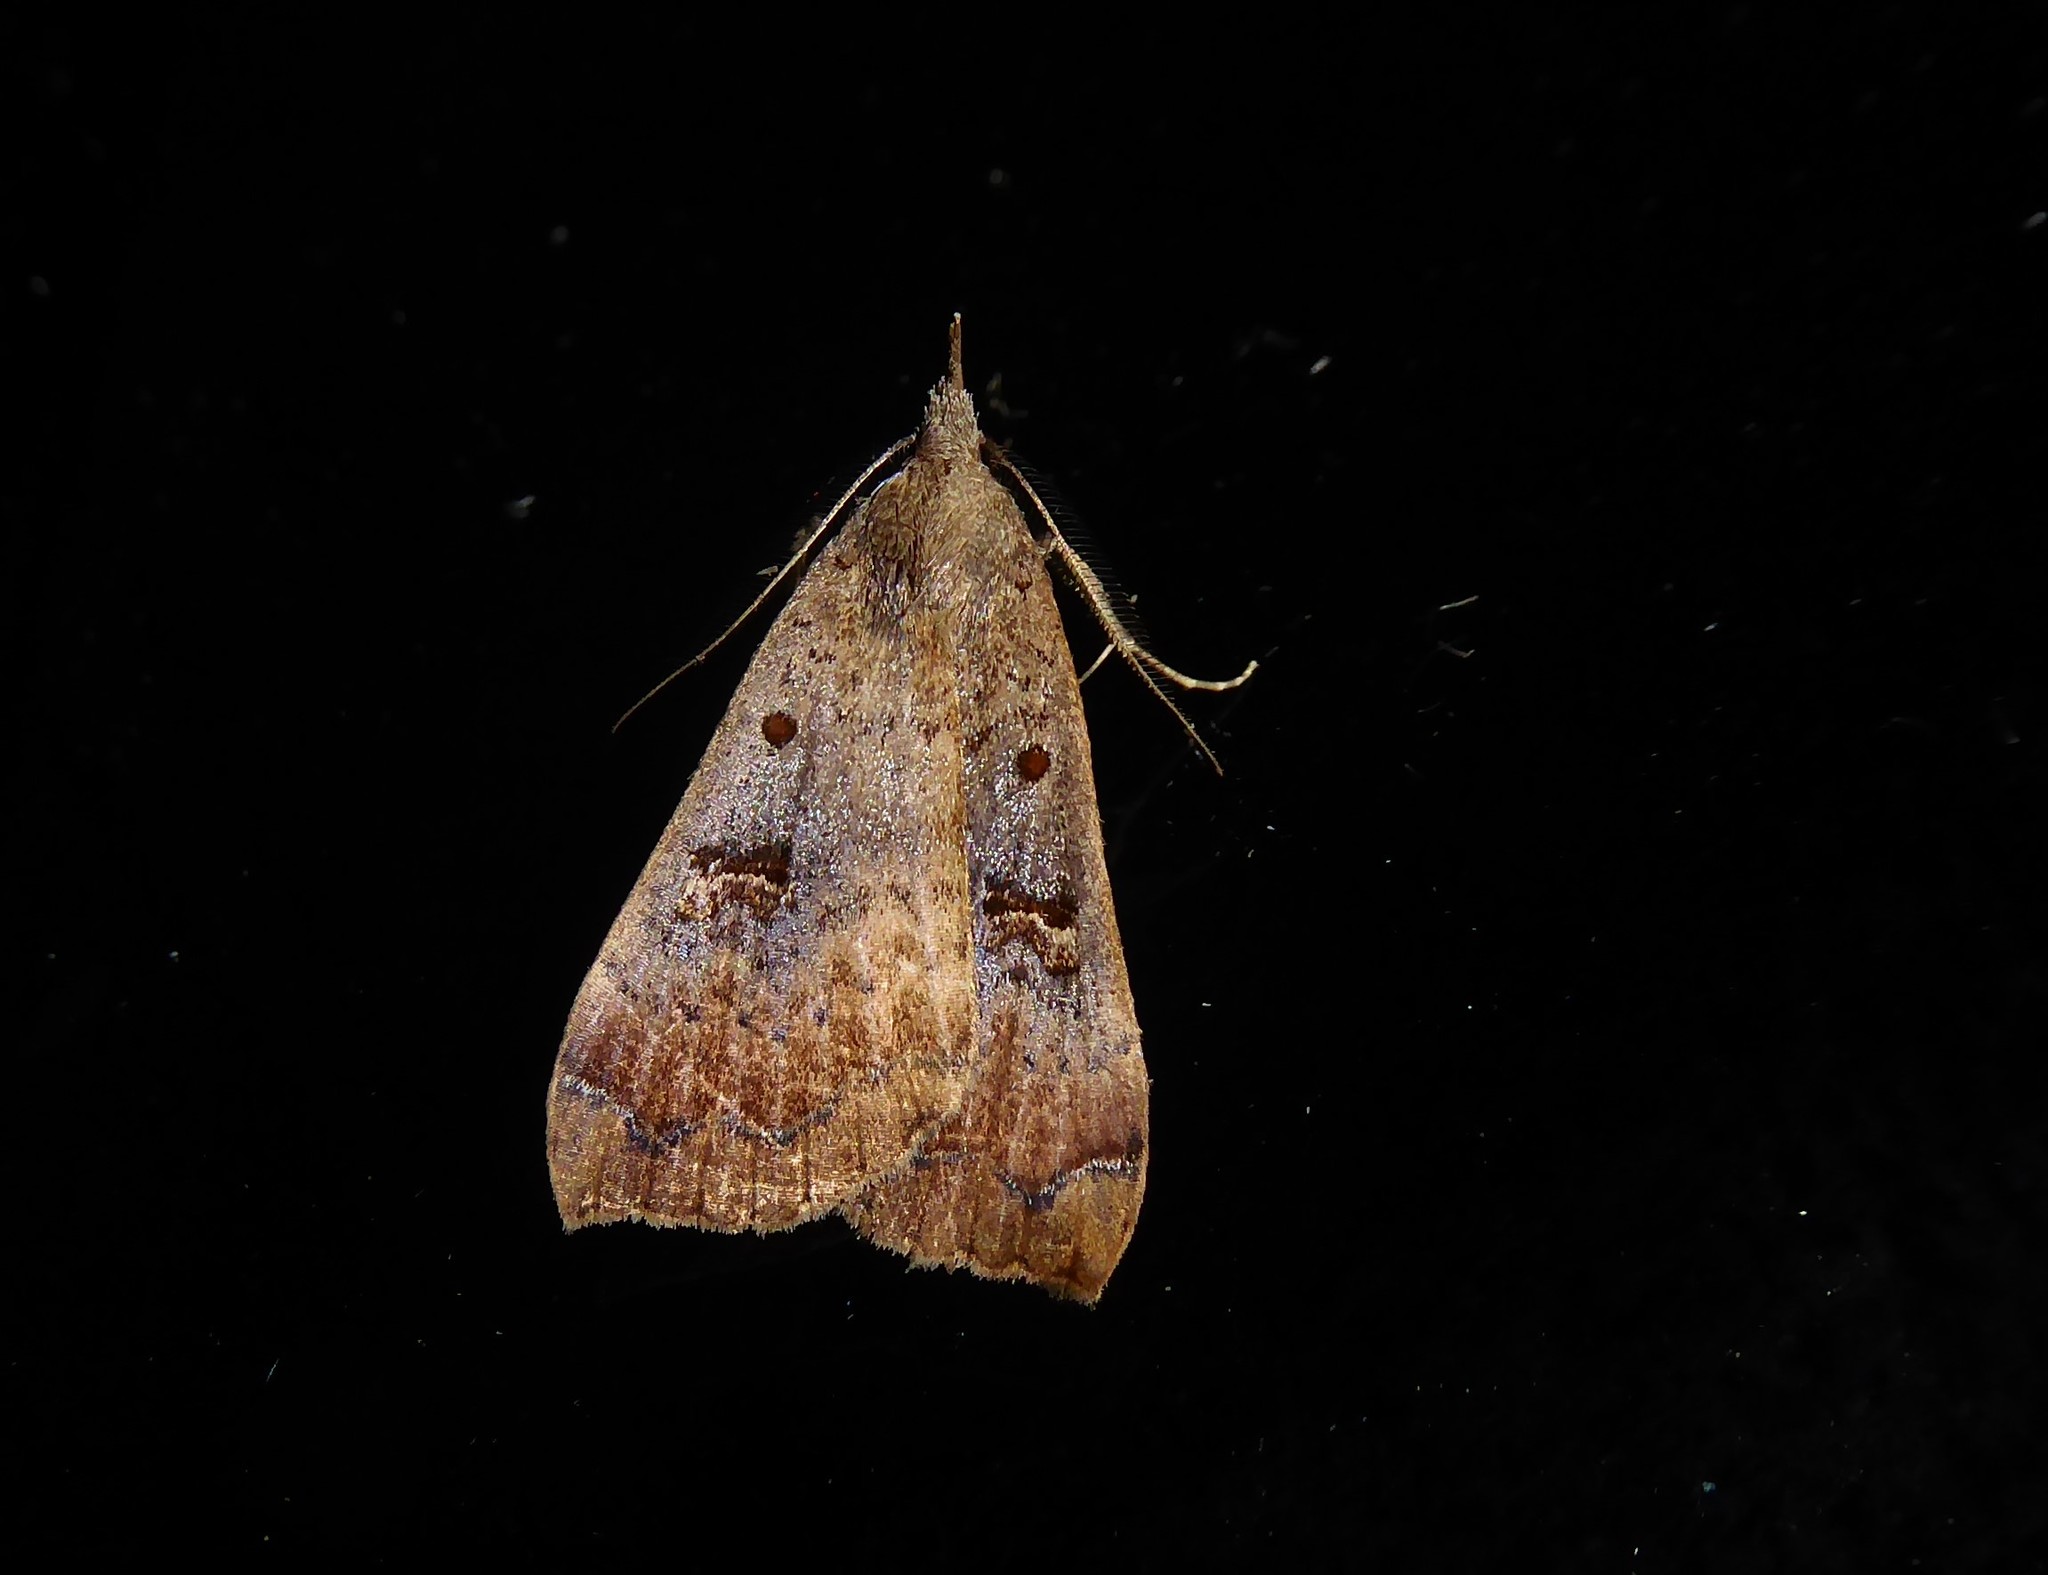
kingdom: Animalia
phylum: Arthropoda
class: Insecta
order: Lepidoptera
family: Erebidae
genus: Rhapsa
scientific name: Rhapsa scotosialis
